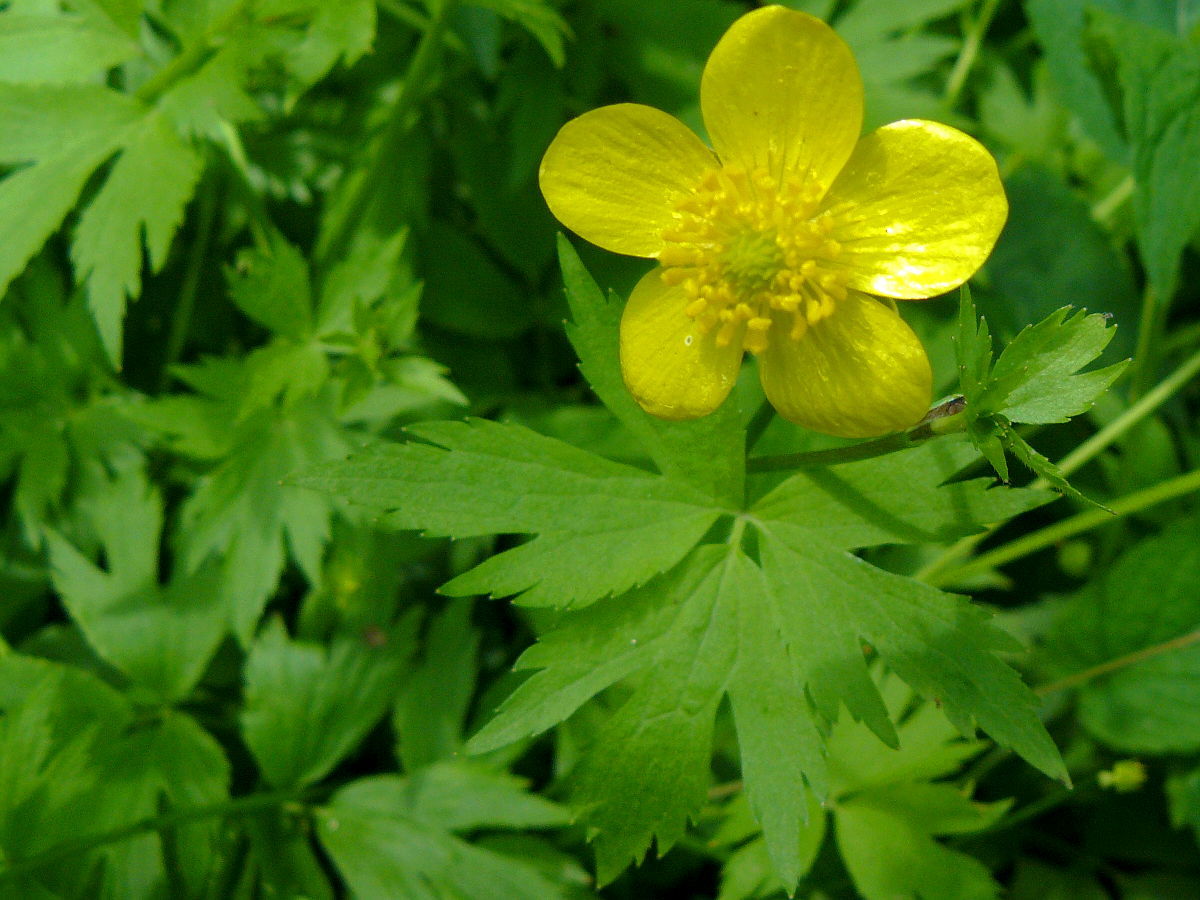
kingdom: Plantae
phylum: Tracheophyta
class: Magnoliopsida
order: Ranunculales
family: Ranunculaceae
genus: Ranunculus
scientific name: Ranunculus hispidus
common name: Bristly buttercup
